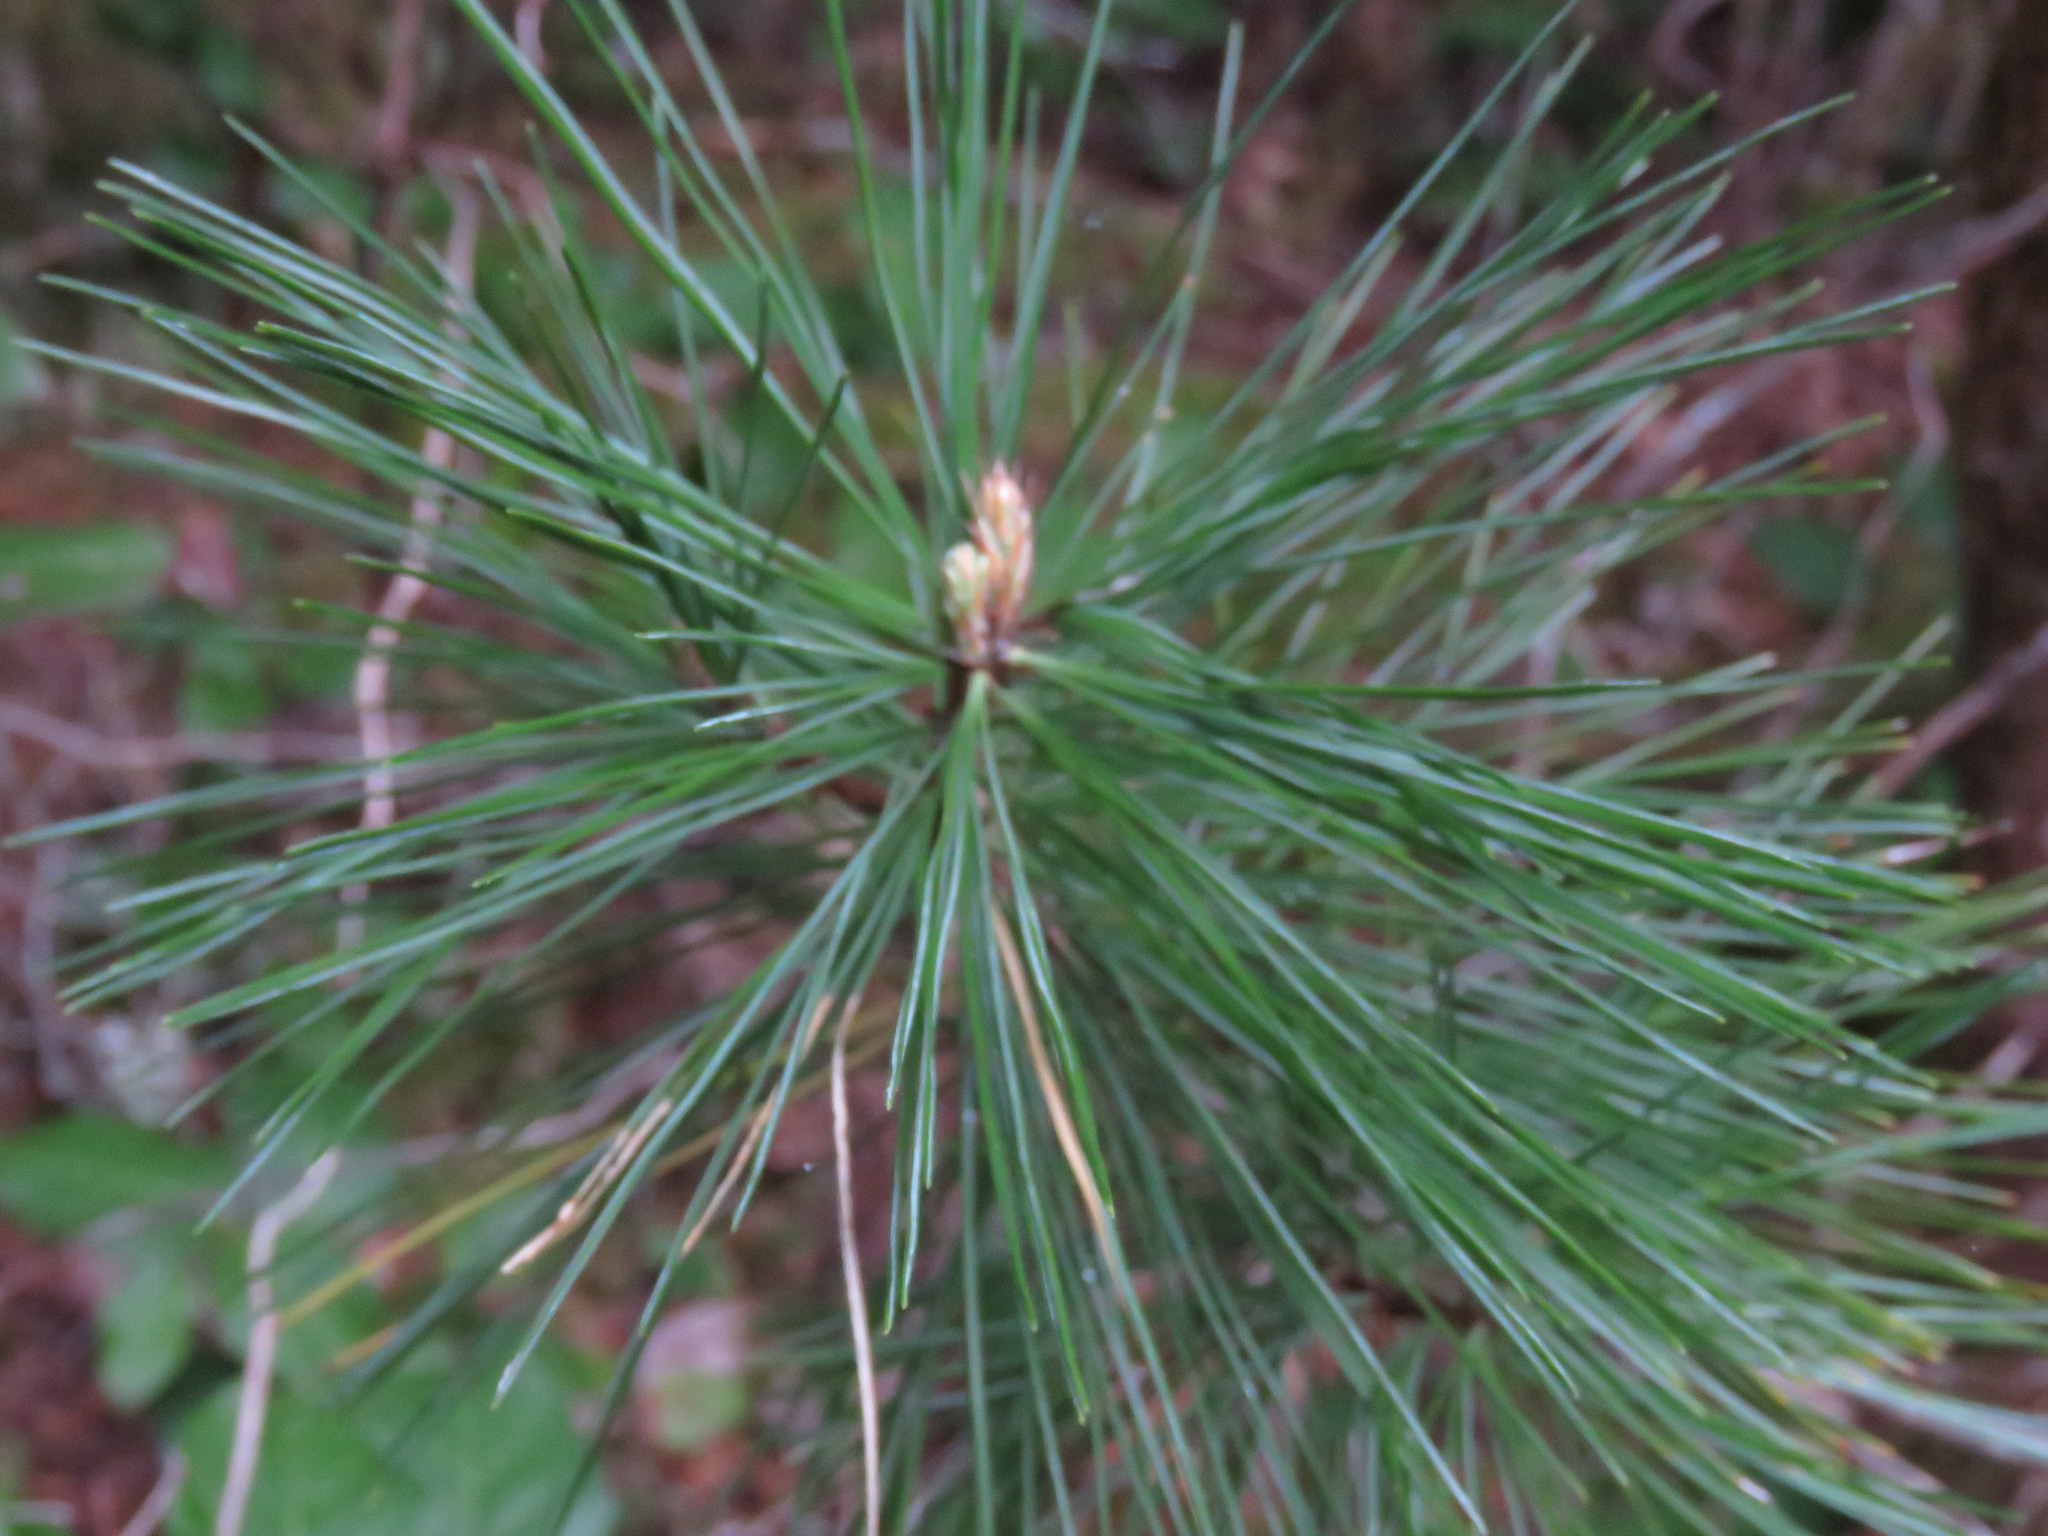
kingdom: Plantae
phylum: Tracheophyta
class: Pinopsida
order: Pinales
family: Pinaceae
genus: Pinus
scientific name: Pinus monticola
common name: Western white pine
